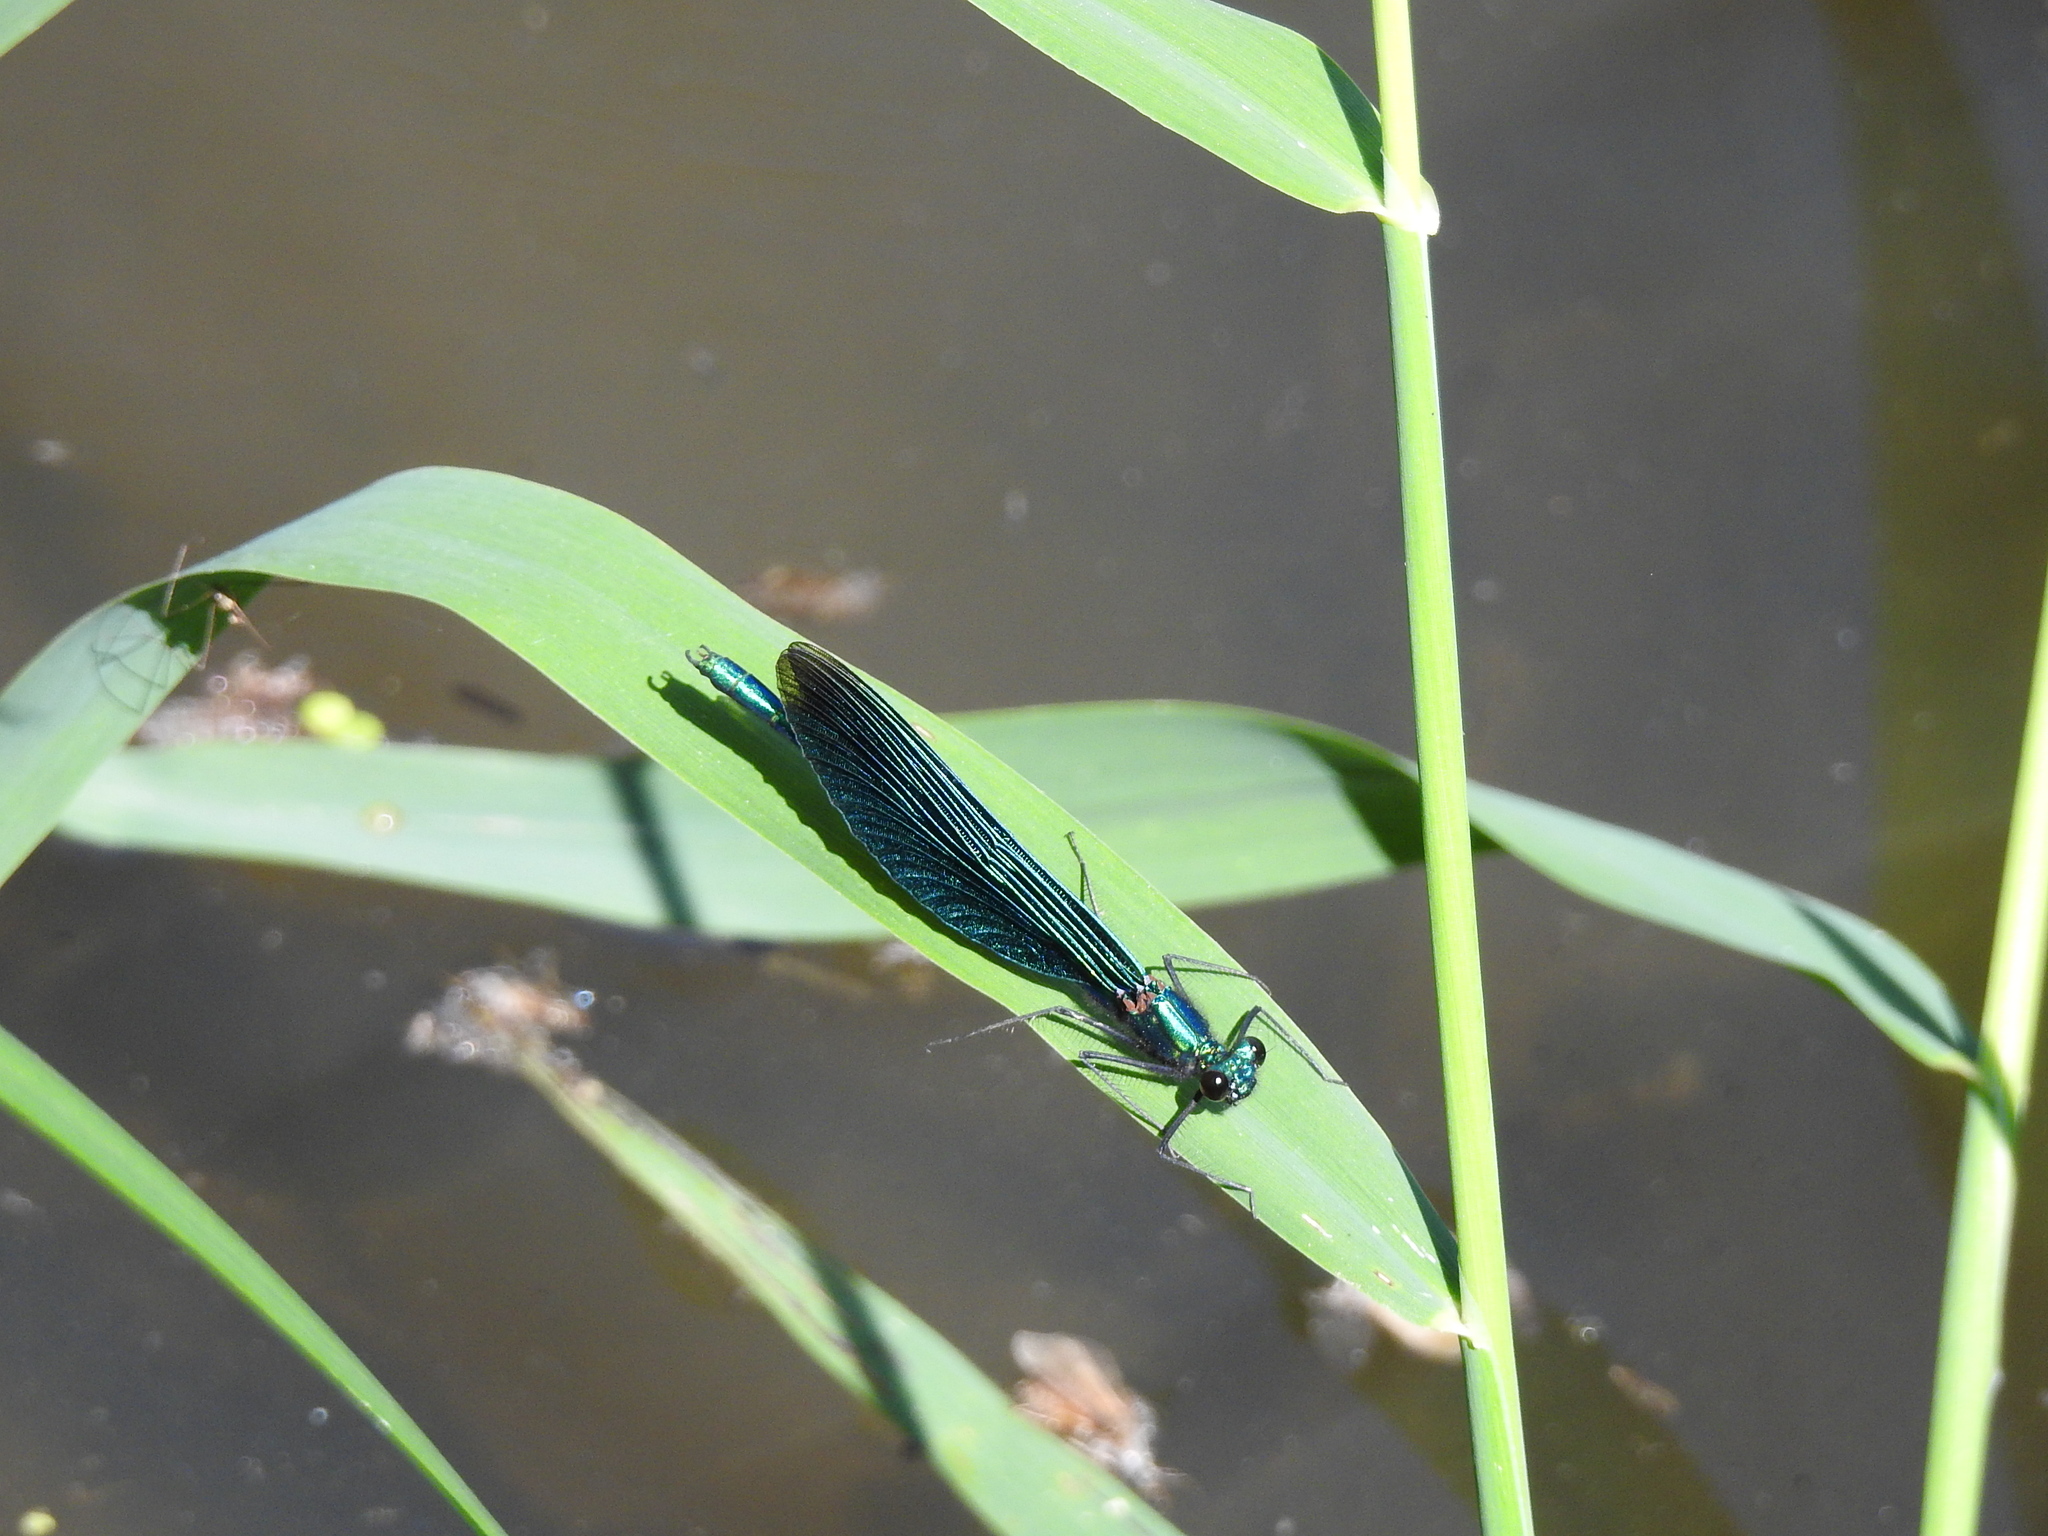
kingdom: Animalia
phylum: Arthropoda
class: Insecta
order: Odonata
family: Calopterygidae
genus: Calopteryx
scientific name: Calopteryx virgo
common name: Beautiful demoiselle
